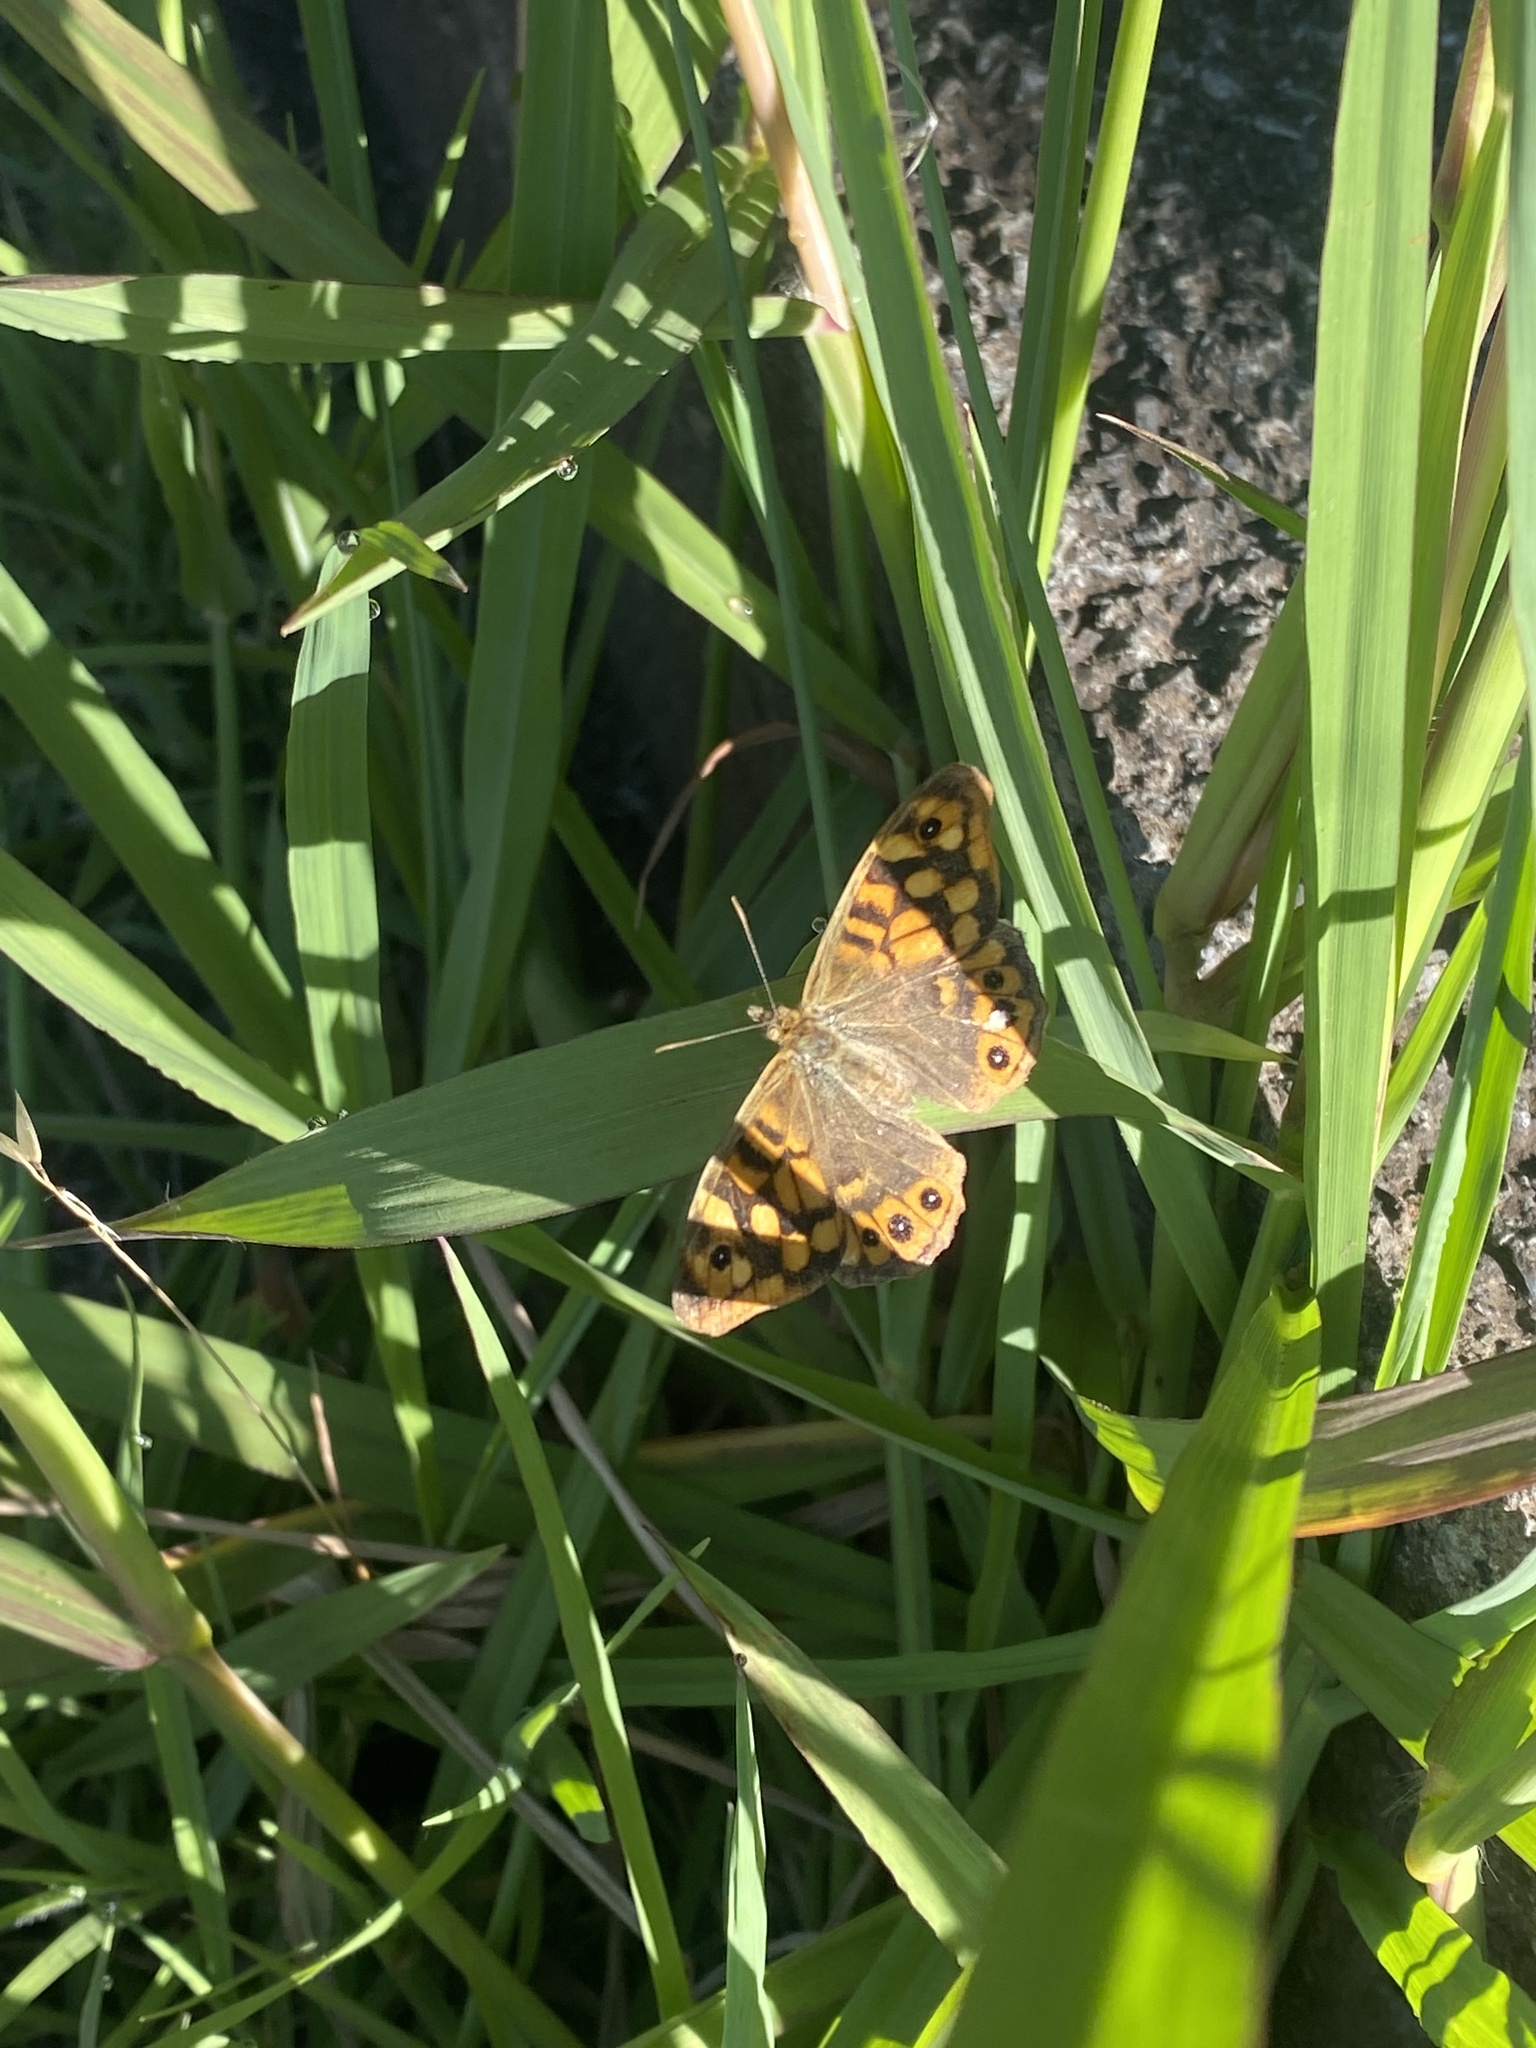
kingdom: Animalia
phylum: Arthropoda
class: Insecta
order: Lepidoptera
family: Nymphalidae
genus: Pararge
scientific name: Pararge aegeria
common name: Speckled wood
